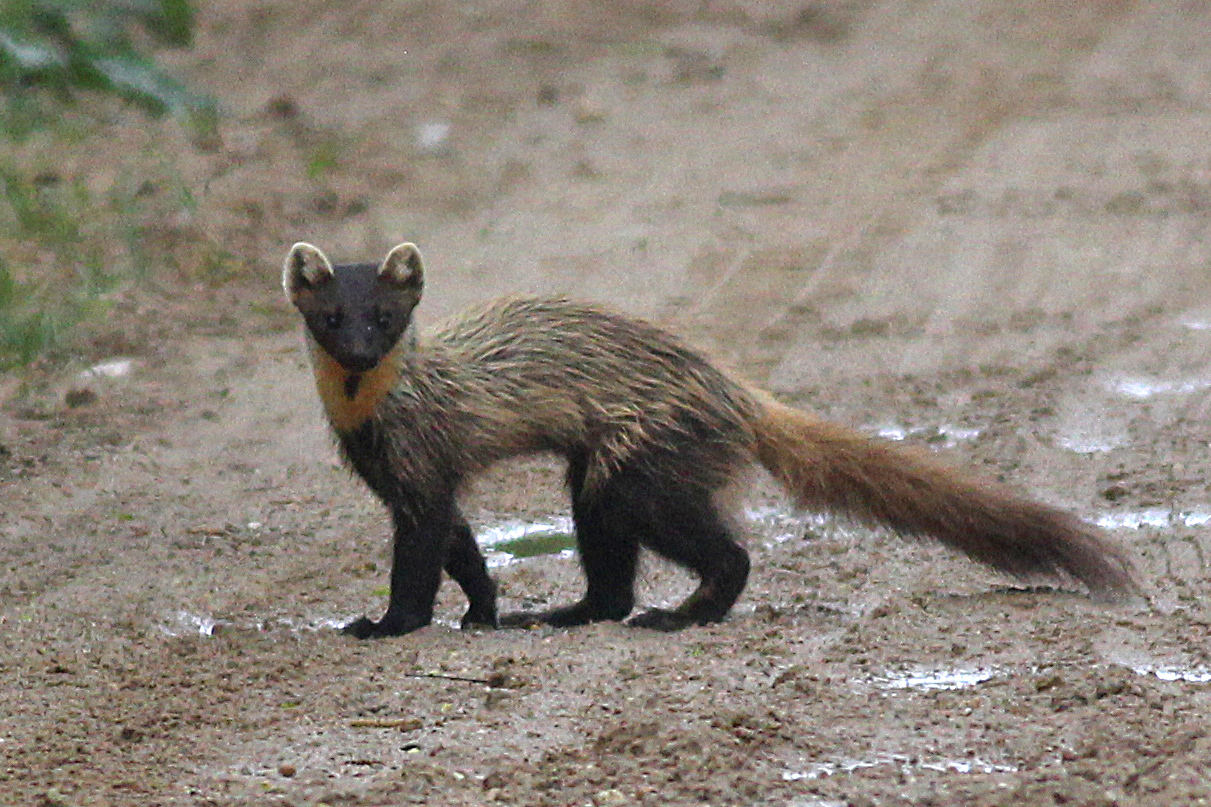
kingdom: Animalia
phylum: Chordata
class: Mammalia
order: Carnivora
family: Mustelidae
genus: Martes
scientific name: Martes martes
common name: European pine marten
